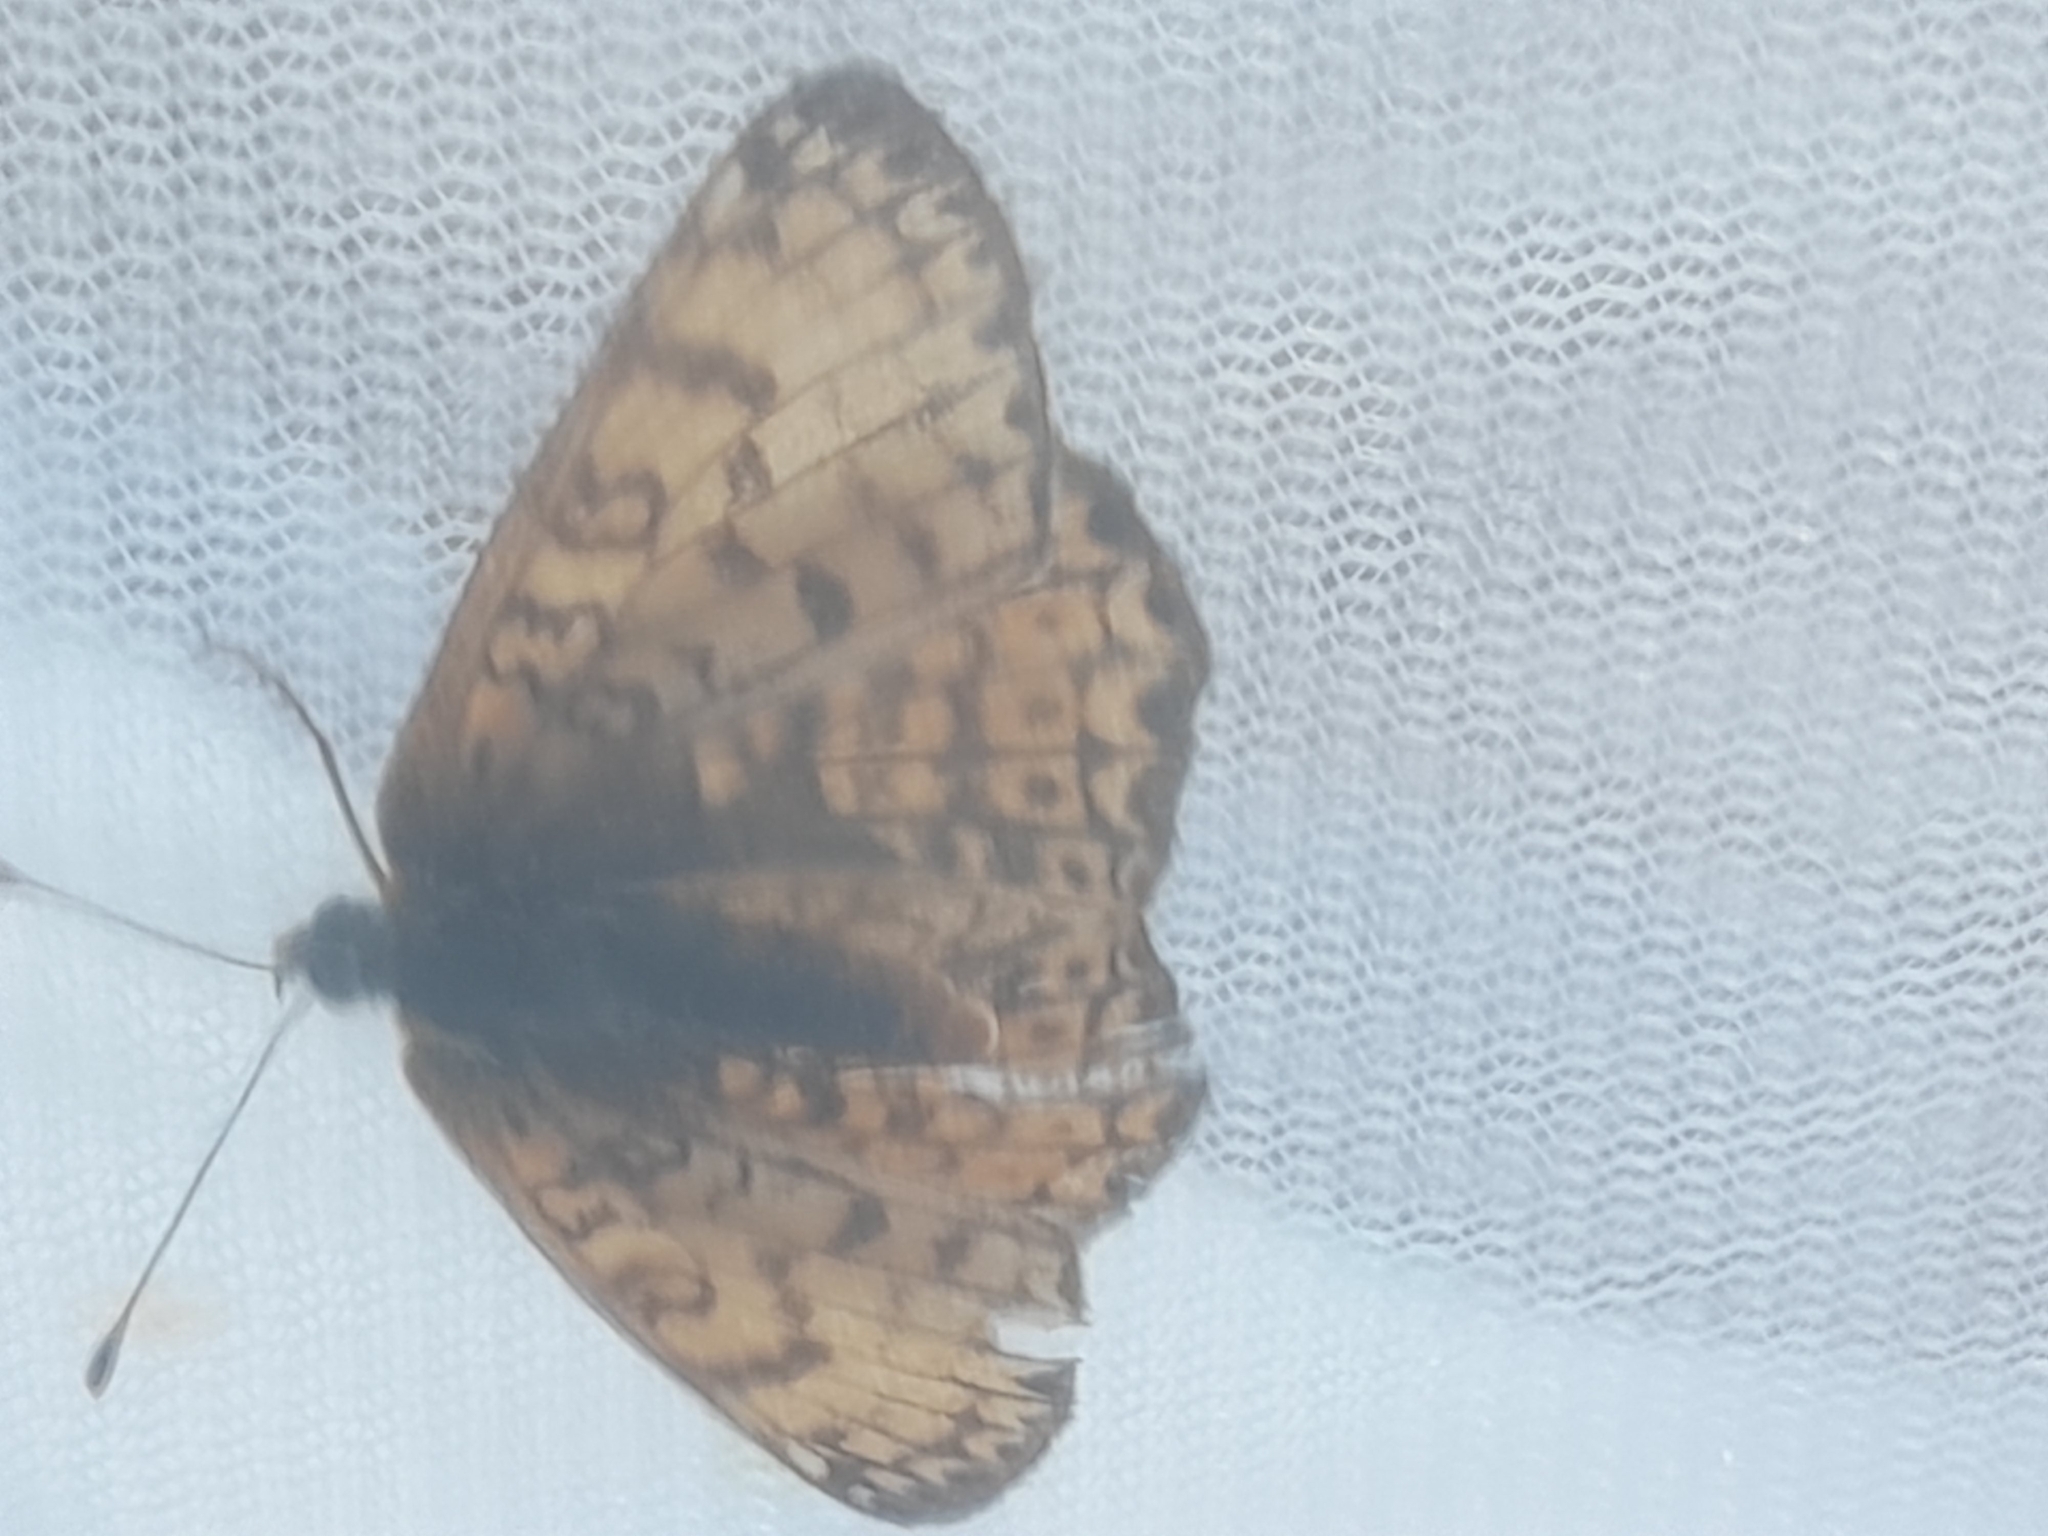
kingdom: Animalia
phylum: Arthropoda
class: Insecta
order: Lepidoptera
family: Nymphalidae
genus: Melitaea
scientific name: Melitaea cinxia
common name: Glanville fritillary
